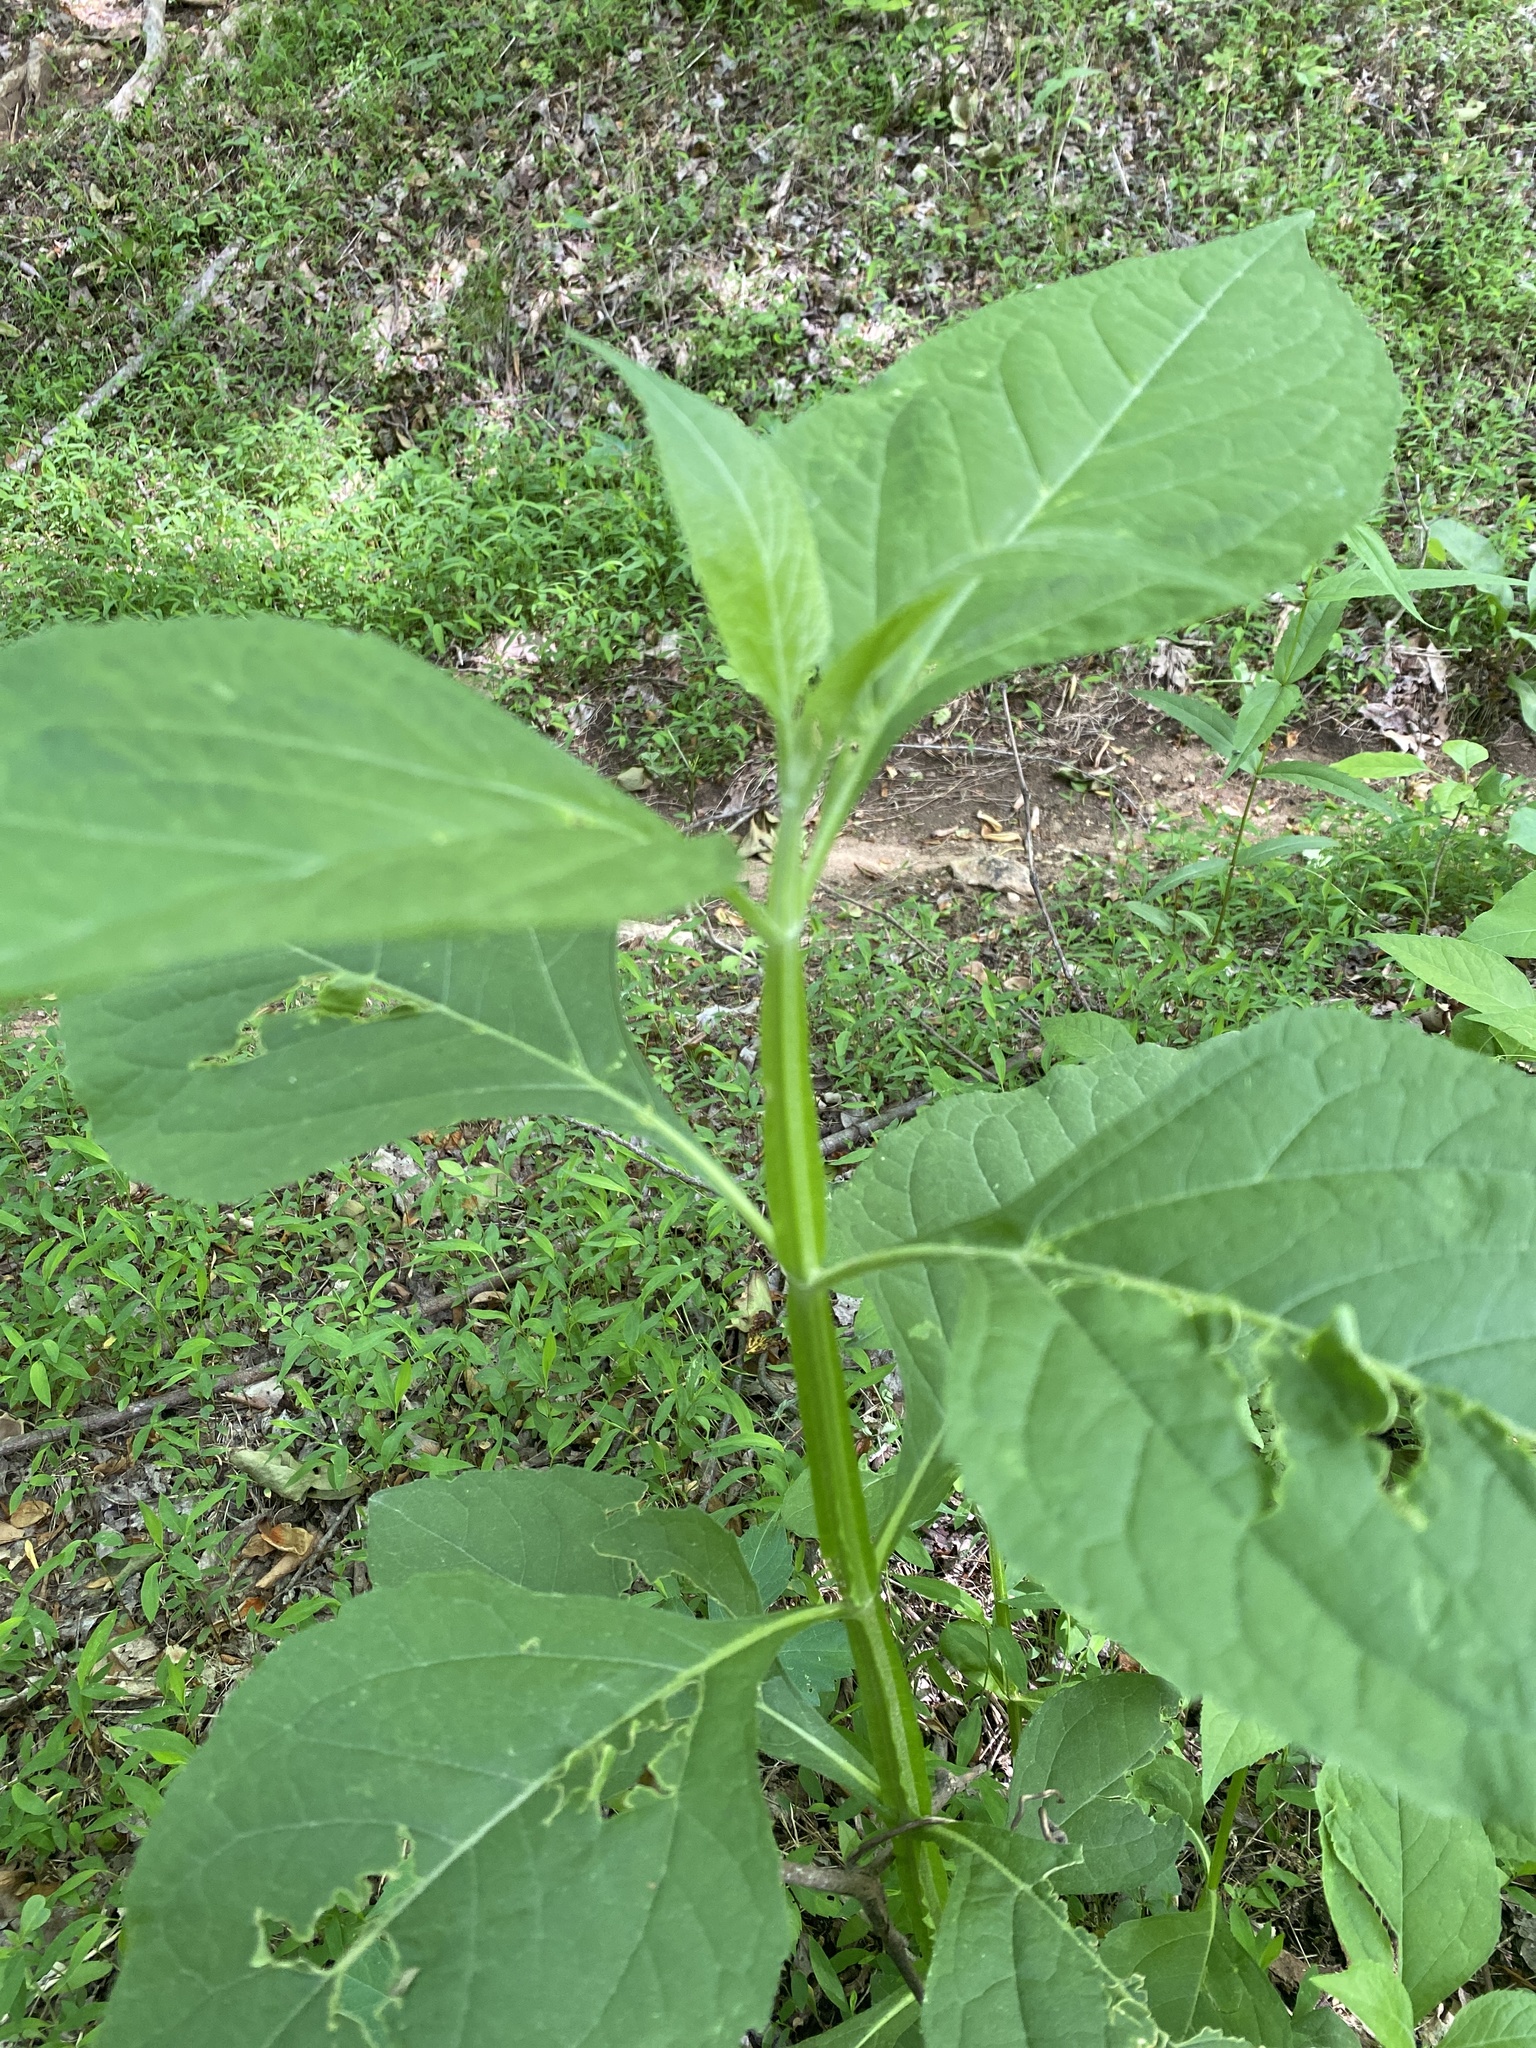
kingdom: Plantae
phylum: Tracheophyta
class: Magnoliopsida
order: Asterales
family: Asteraceae
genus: Verbesina
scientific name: Verbesina occidentalis
